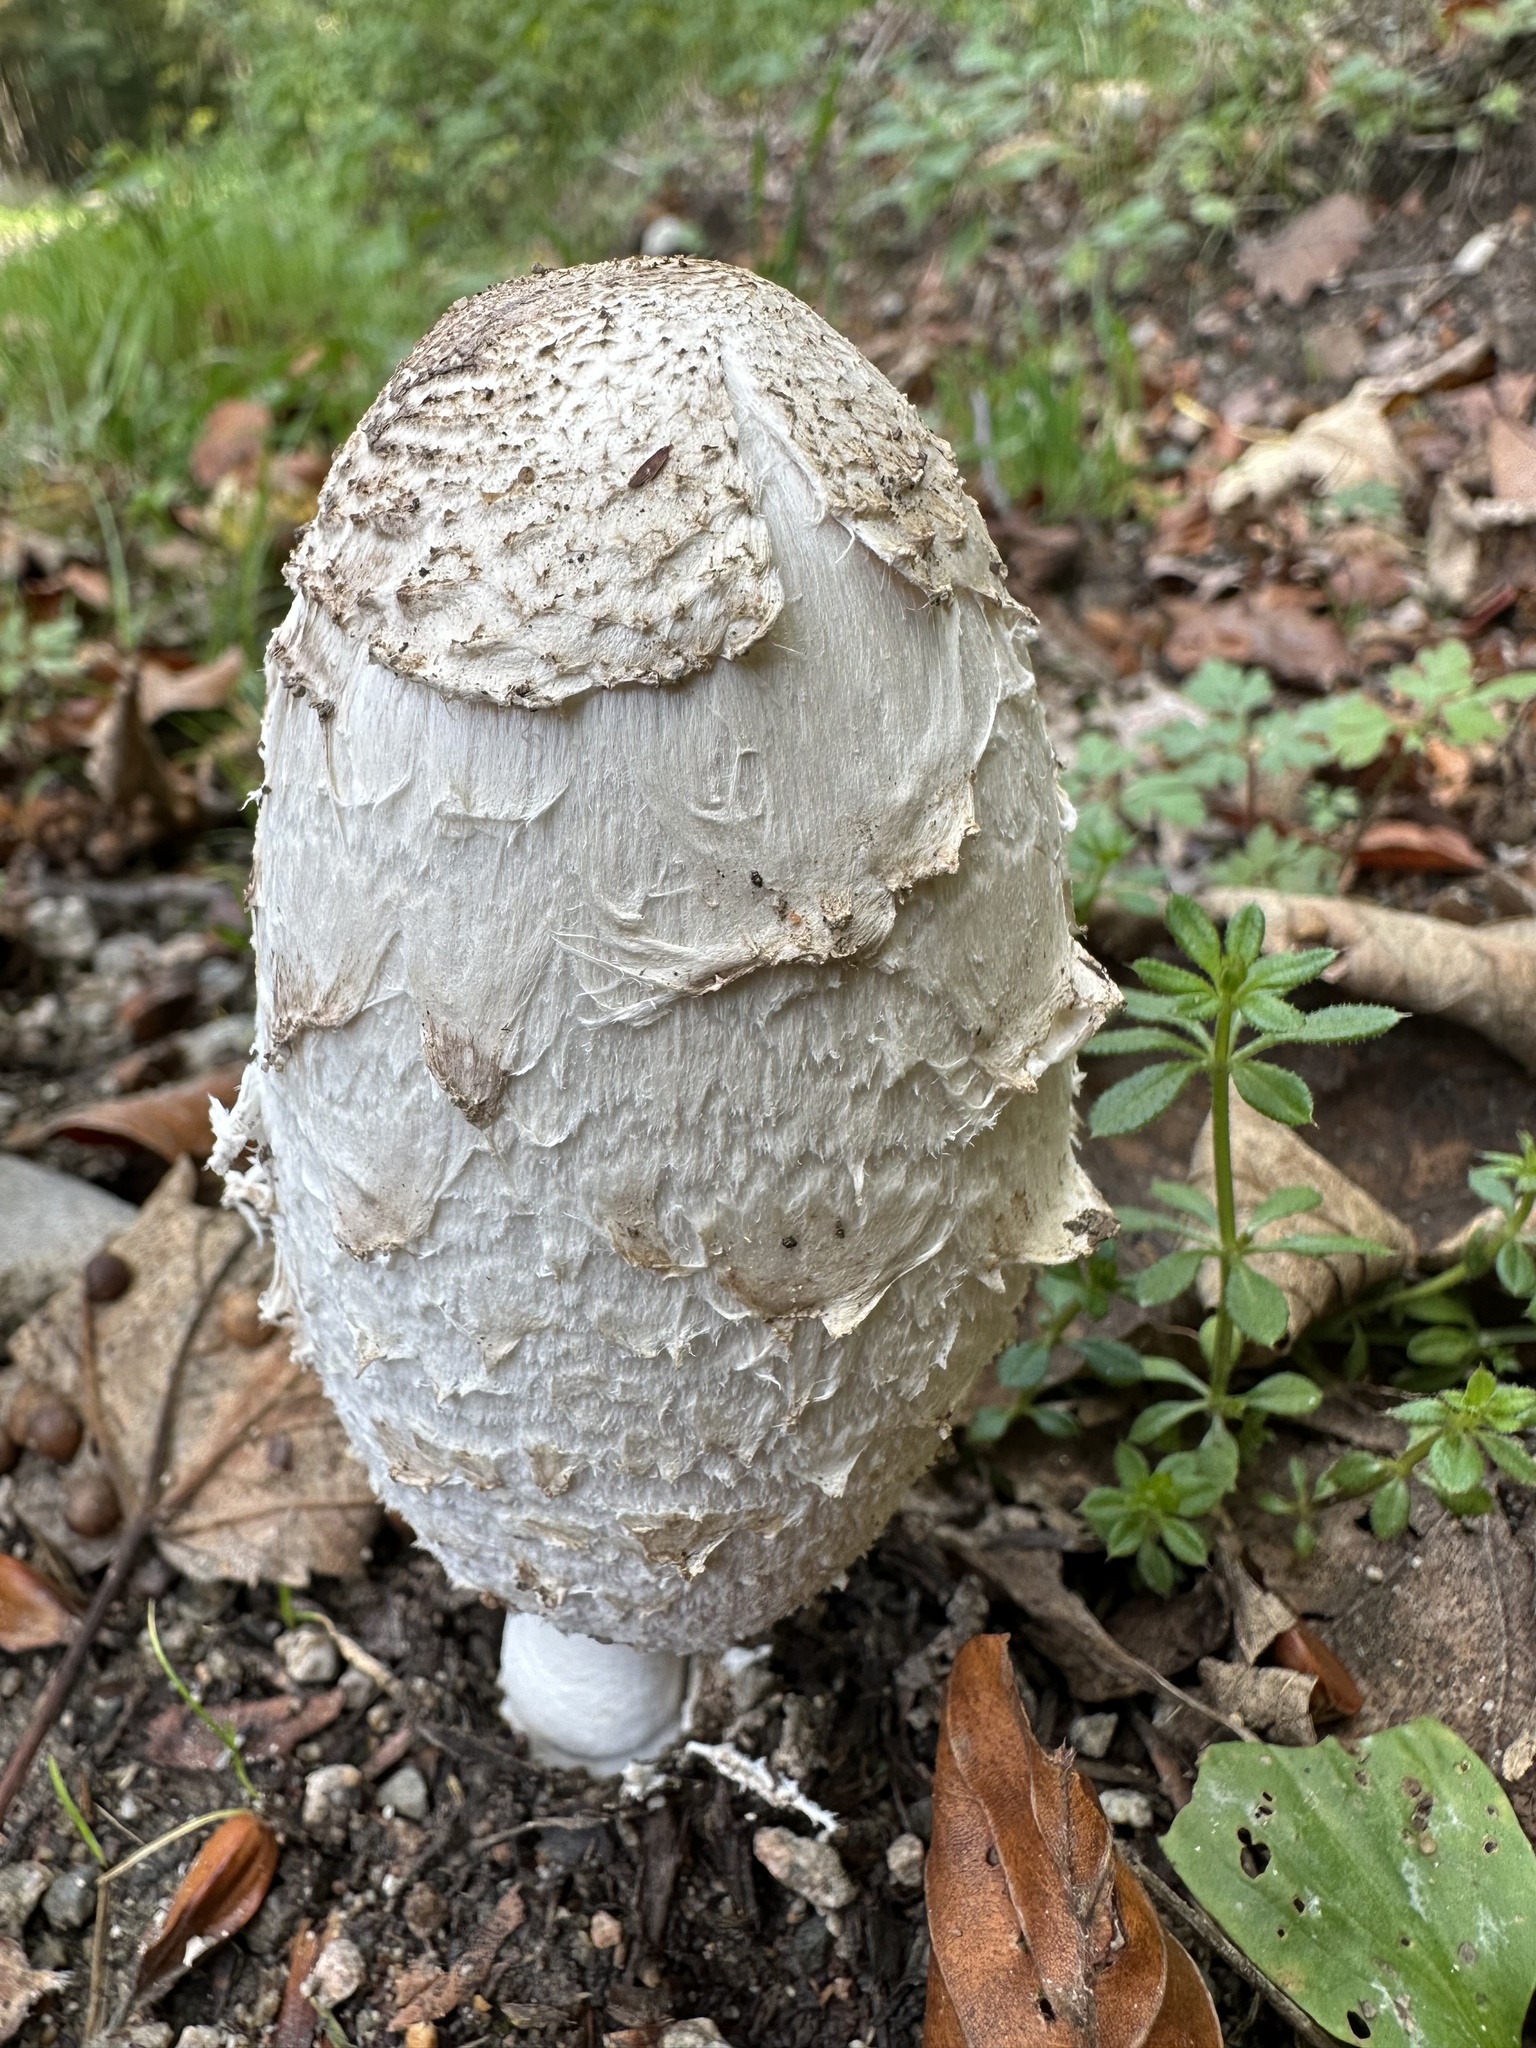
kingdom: Fungi
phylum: Basidiomycota
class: Agaricomycetes
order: Agaricales
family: Agaricaceae
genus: Coprinus
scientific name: Coprinus comatus
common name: Lawyer's wig
